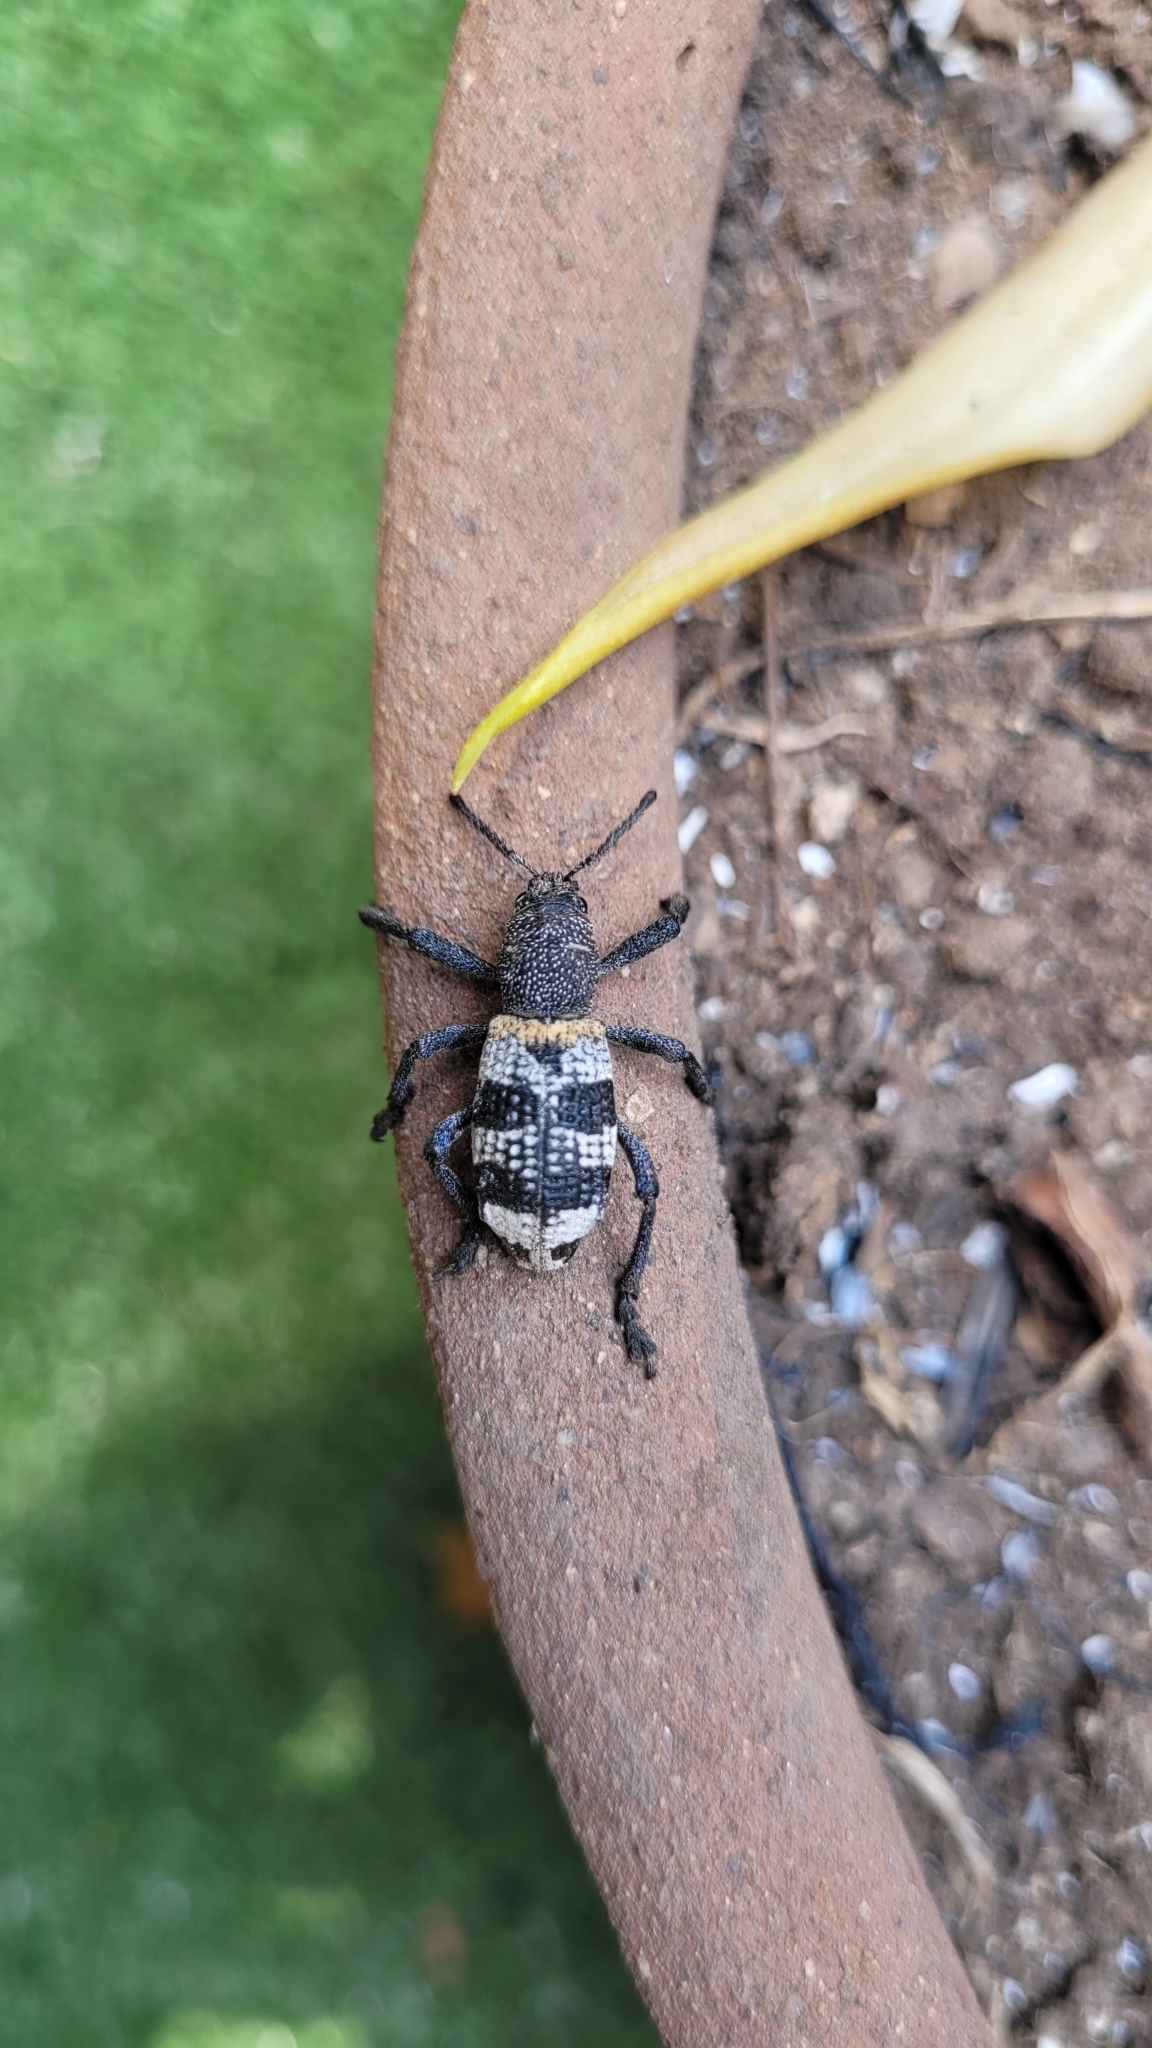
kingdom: Animalia
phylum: Arthropoda
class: Insecta
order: Coleoptera
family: Curculionidae
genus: Aegorhinus
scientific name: Aegorhinus phaleratus
